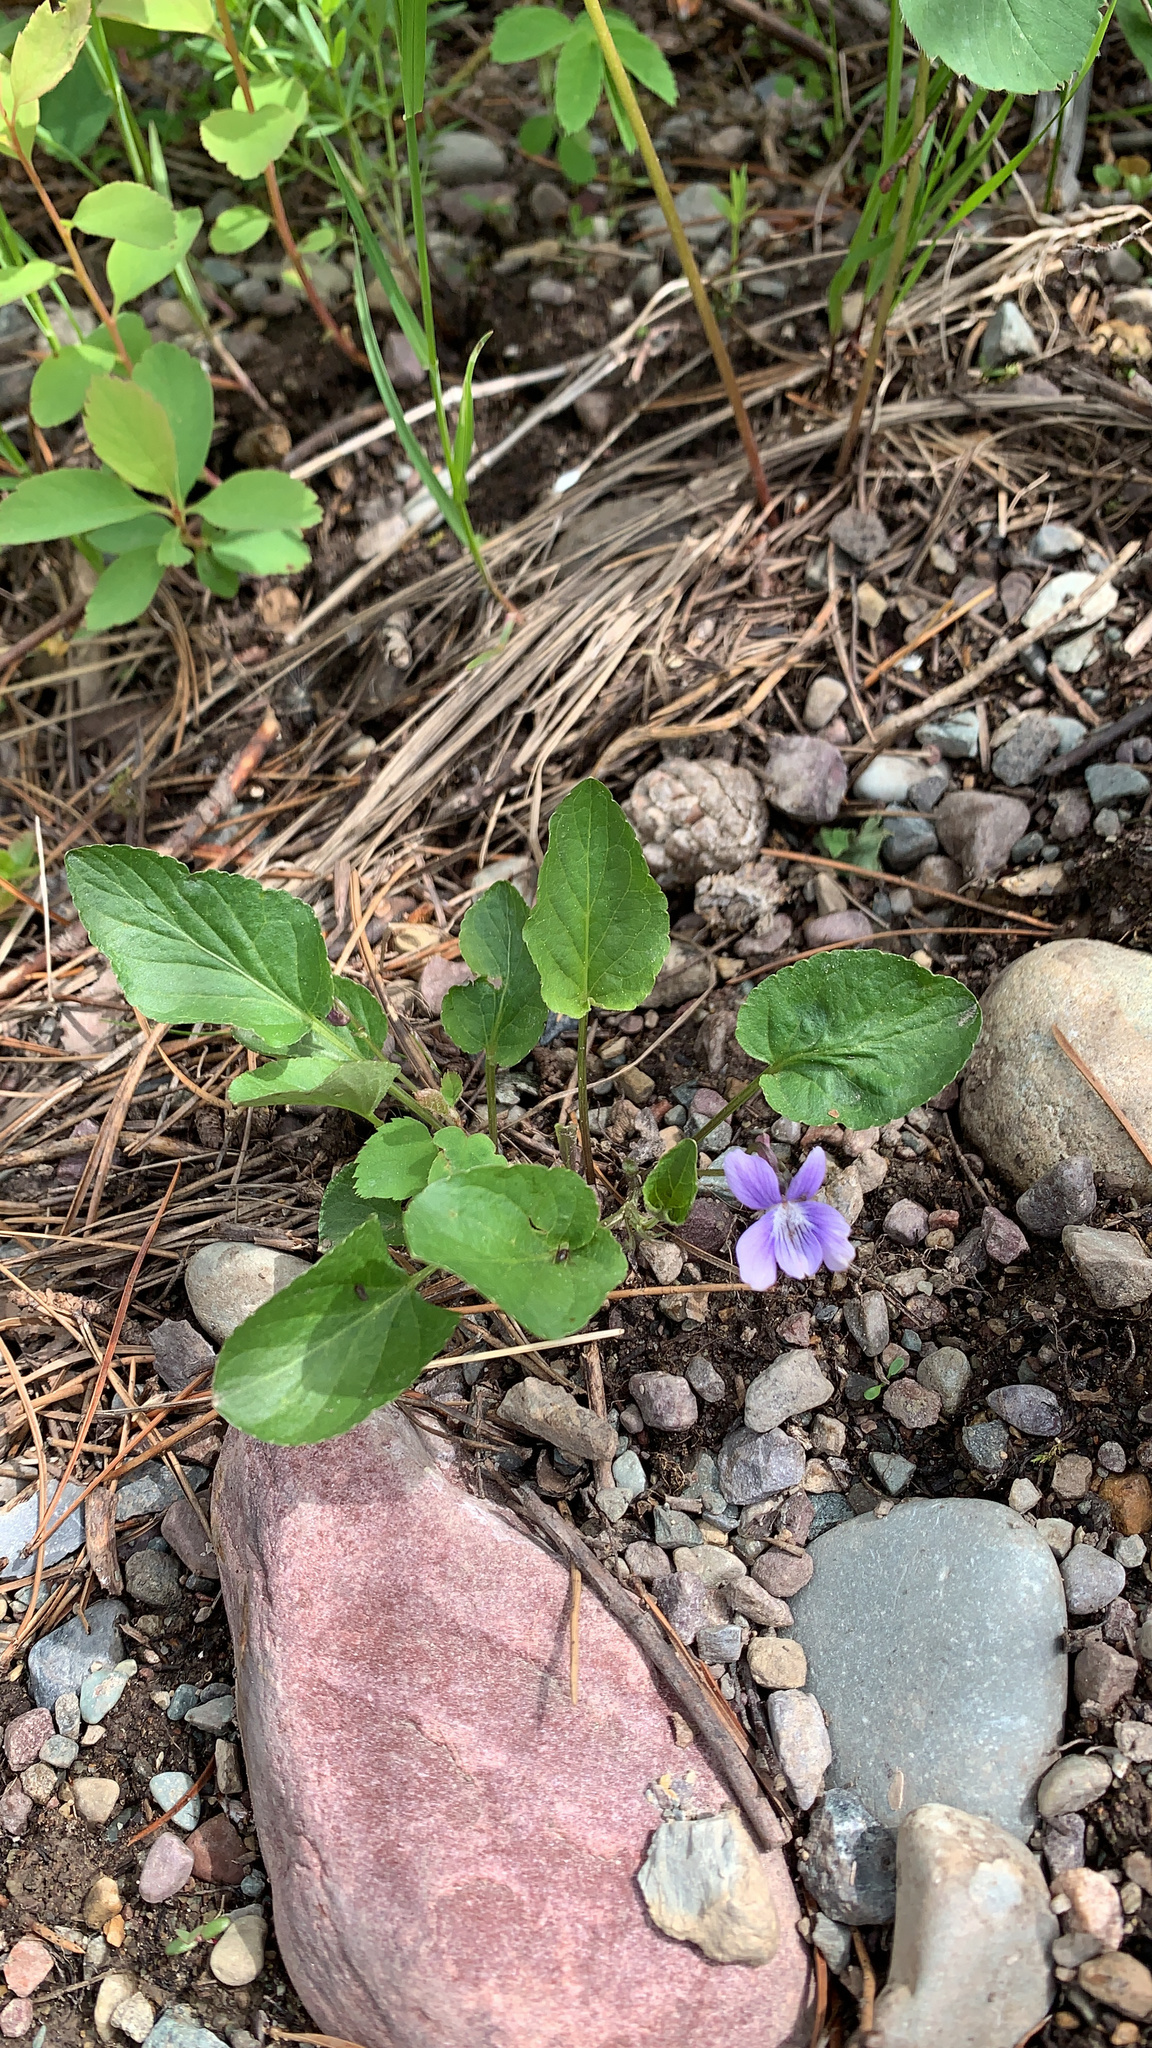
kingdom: Plantae
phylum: Tracheophyta
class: Magnoliopsida
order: Malpighiales
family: Violaceae
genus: Viola
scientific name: Viola adunca
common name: Sand violet
